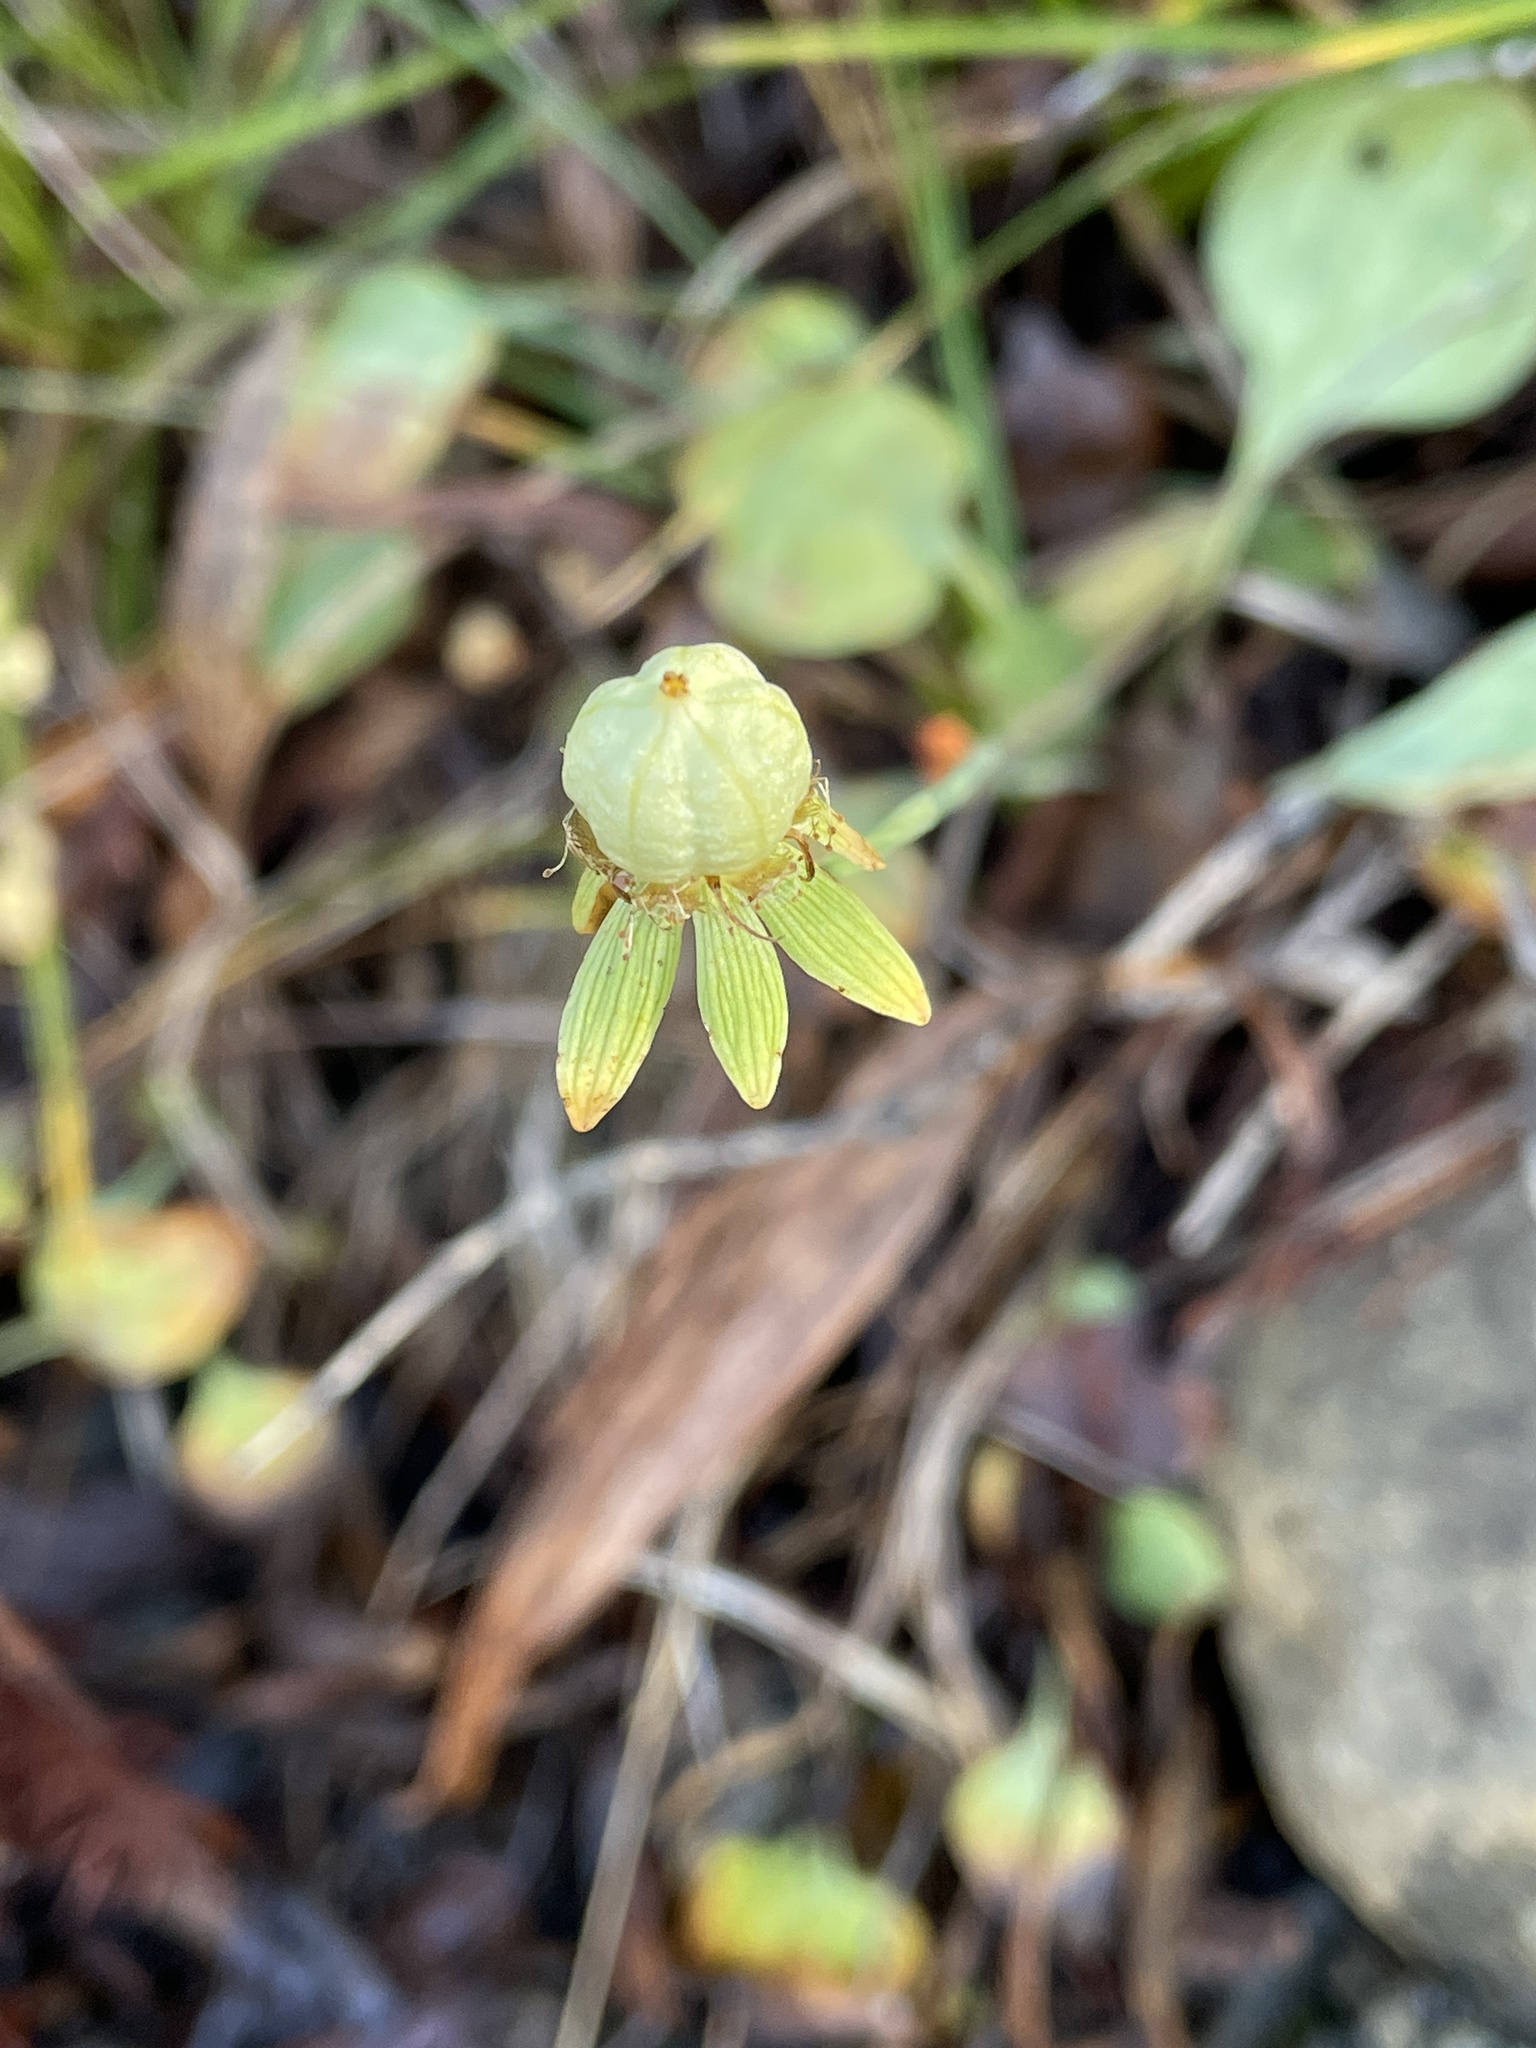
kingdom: Plantae
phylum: Tracheophyta
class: Magnoliopsida
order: Celastrales
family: Parnassiaceae
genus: Parnassia
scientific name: Parnassia palustris
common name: Grass-of-parnassus
